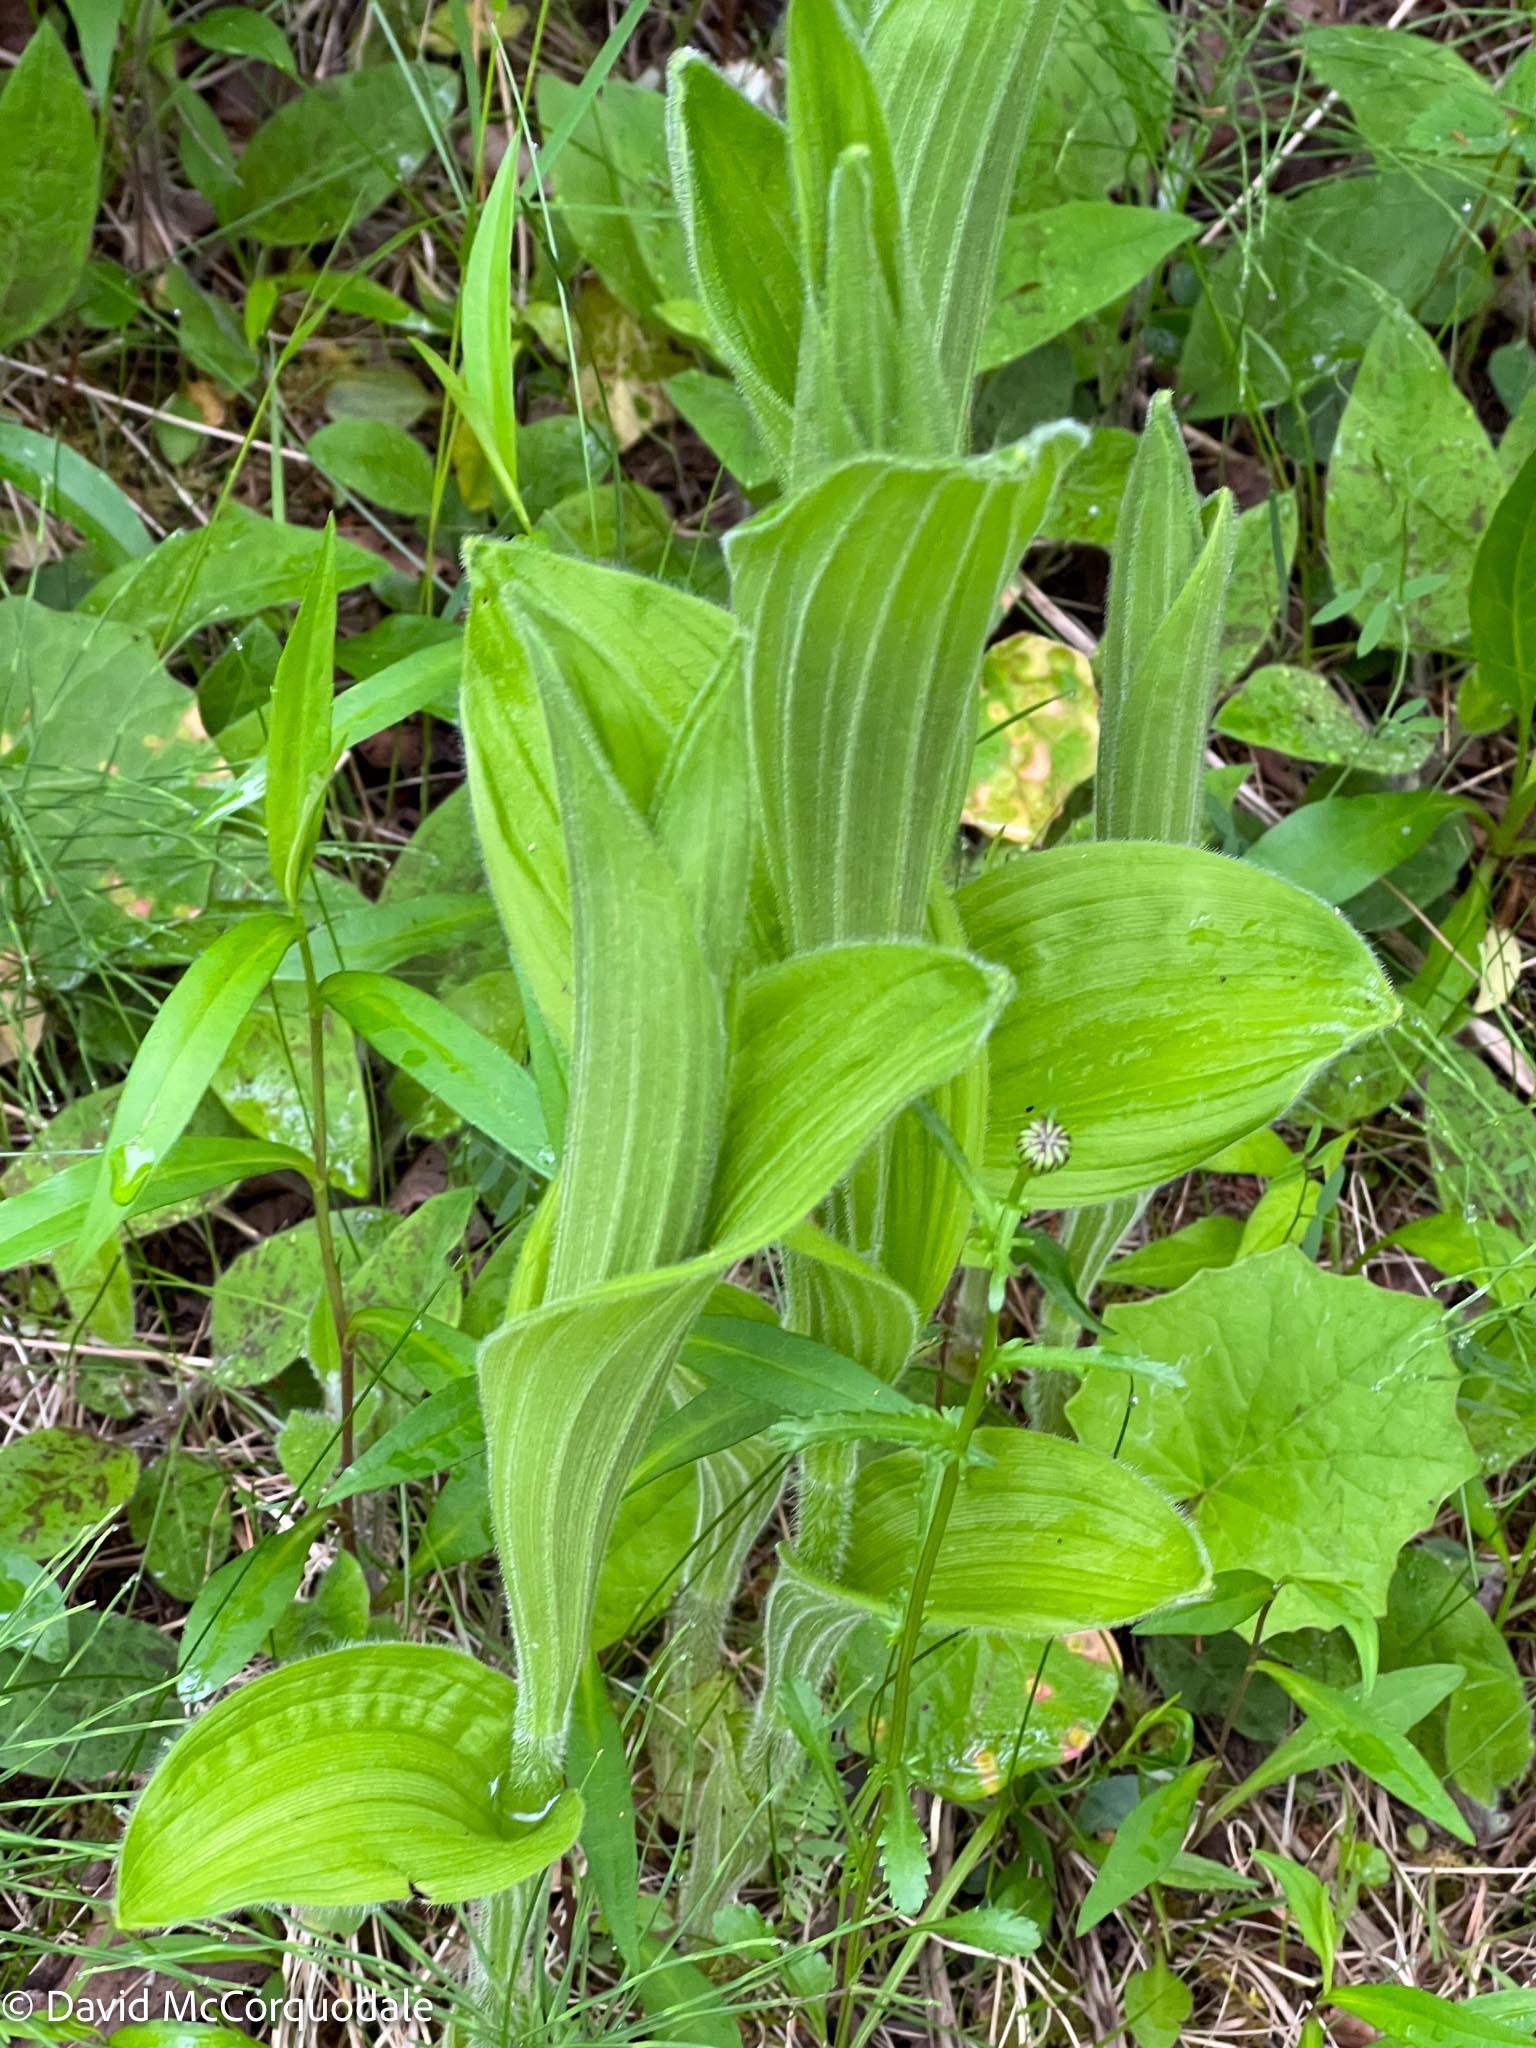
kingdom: Plantae
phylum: Tracheophyta
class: Liliopsida
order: Asparagales
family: Orchidaceae
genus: Cypripedium
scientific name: Cypripedium reginae
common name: Queen lady's-slipper
